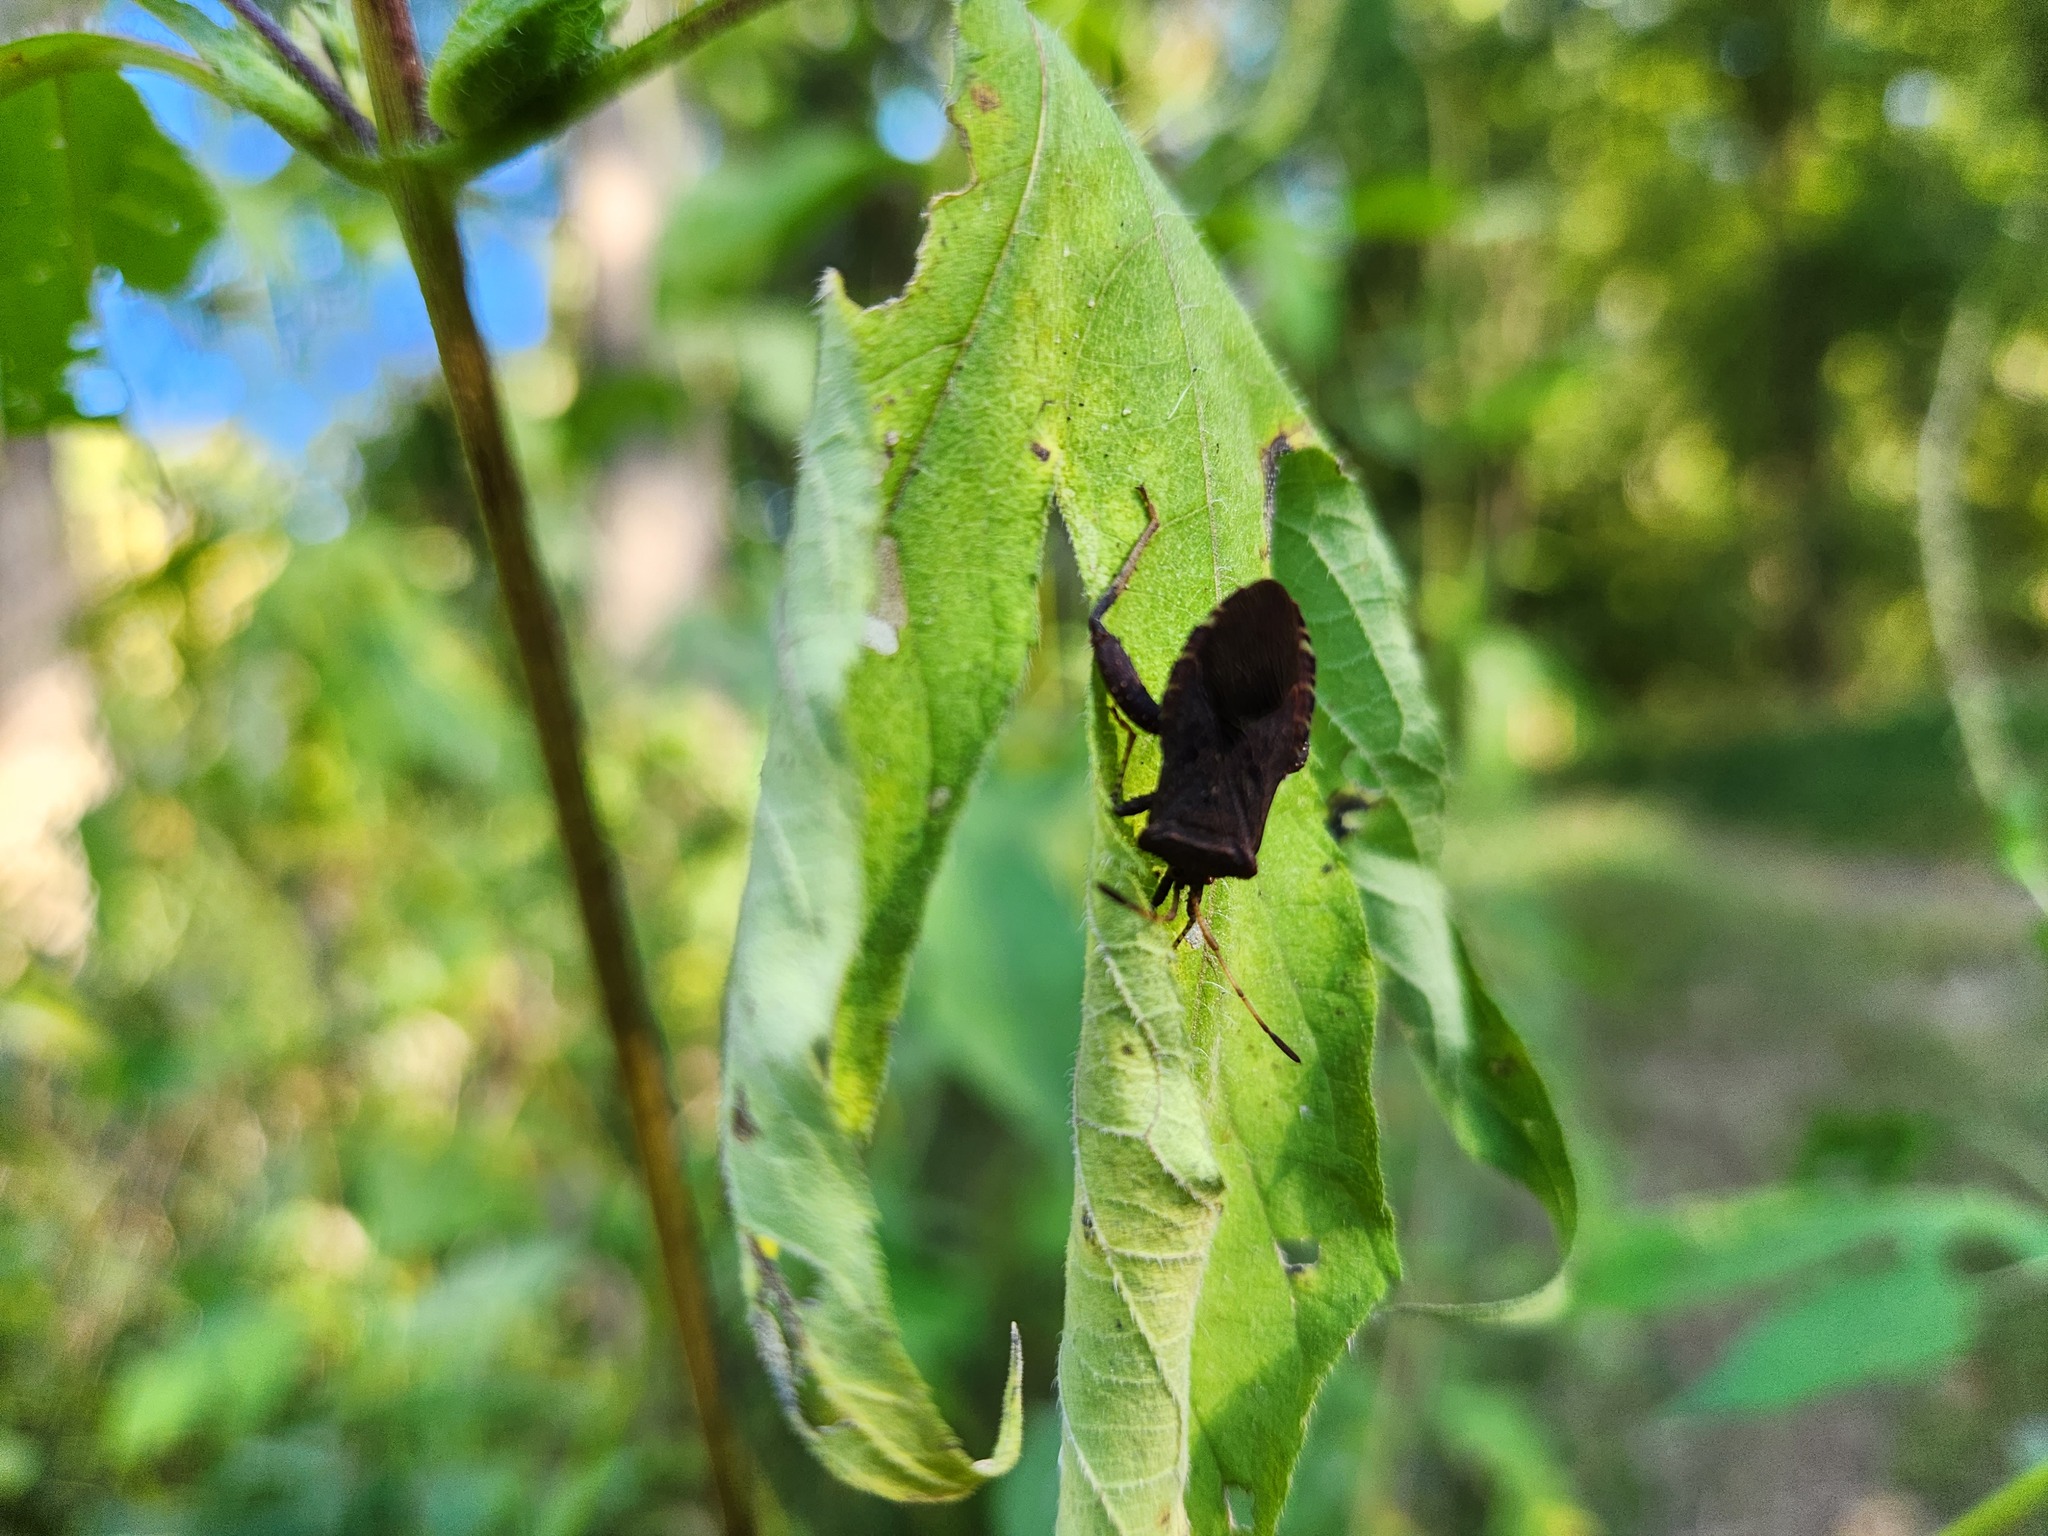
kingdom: Animalia
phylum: Arthropoda
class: Insecta
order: Hemiptera
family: Coreidae
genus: Euthochtha
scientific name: Euthochtha galeator
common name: Helmeted squash bug
